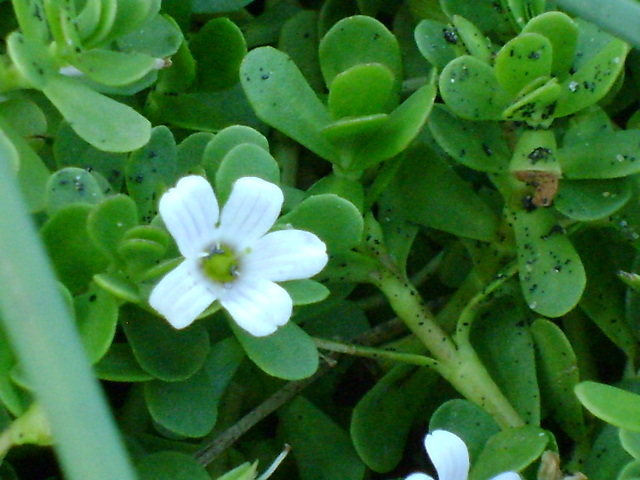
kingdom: Plantae
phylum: Tracheophyta
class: Magnoliopsida
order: Lamiales
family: Plantaginaceae
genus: Bacopa
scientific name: Bacopa monnieri
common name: Indian-pennywort
